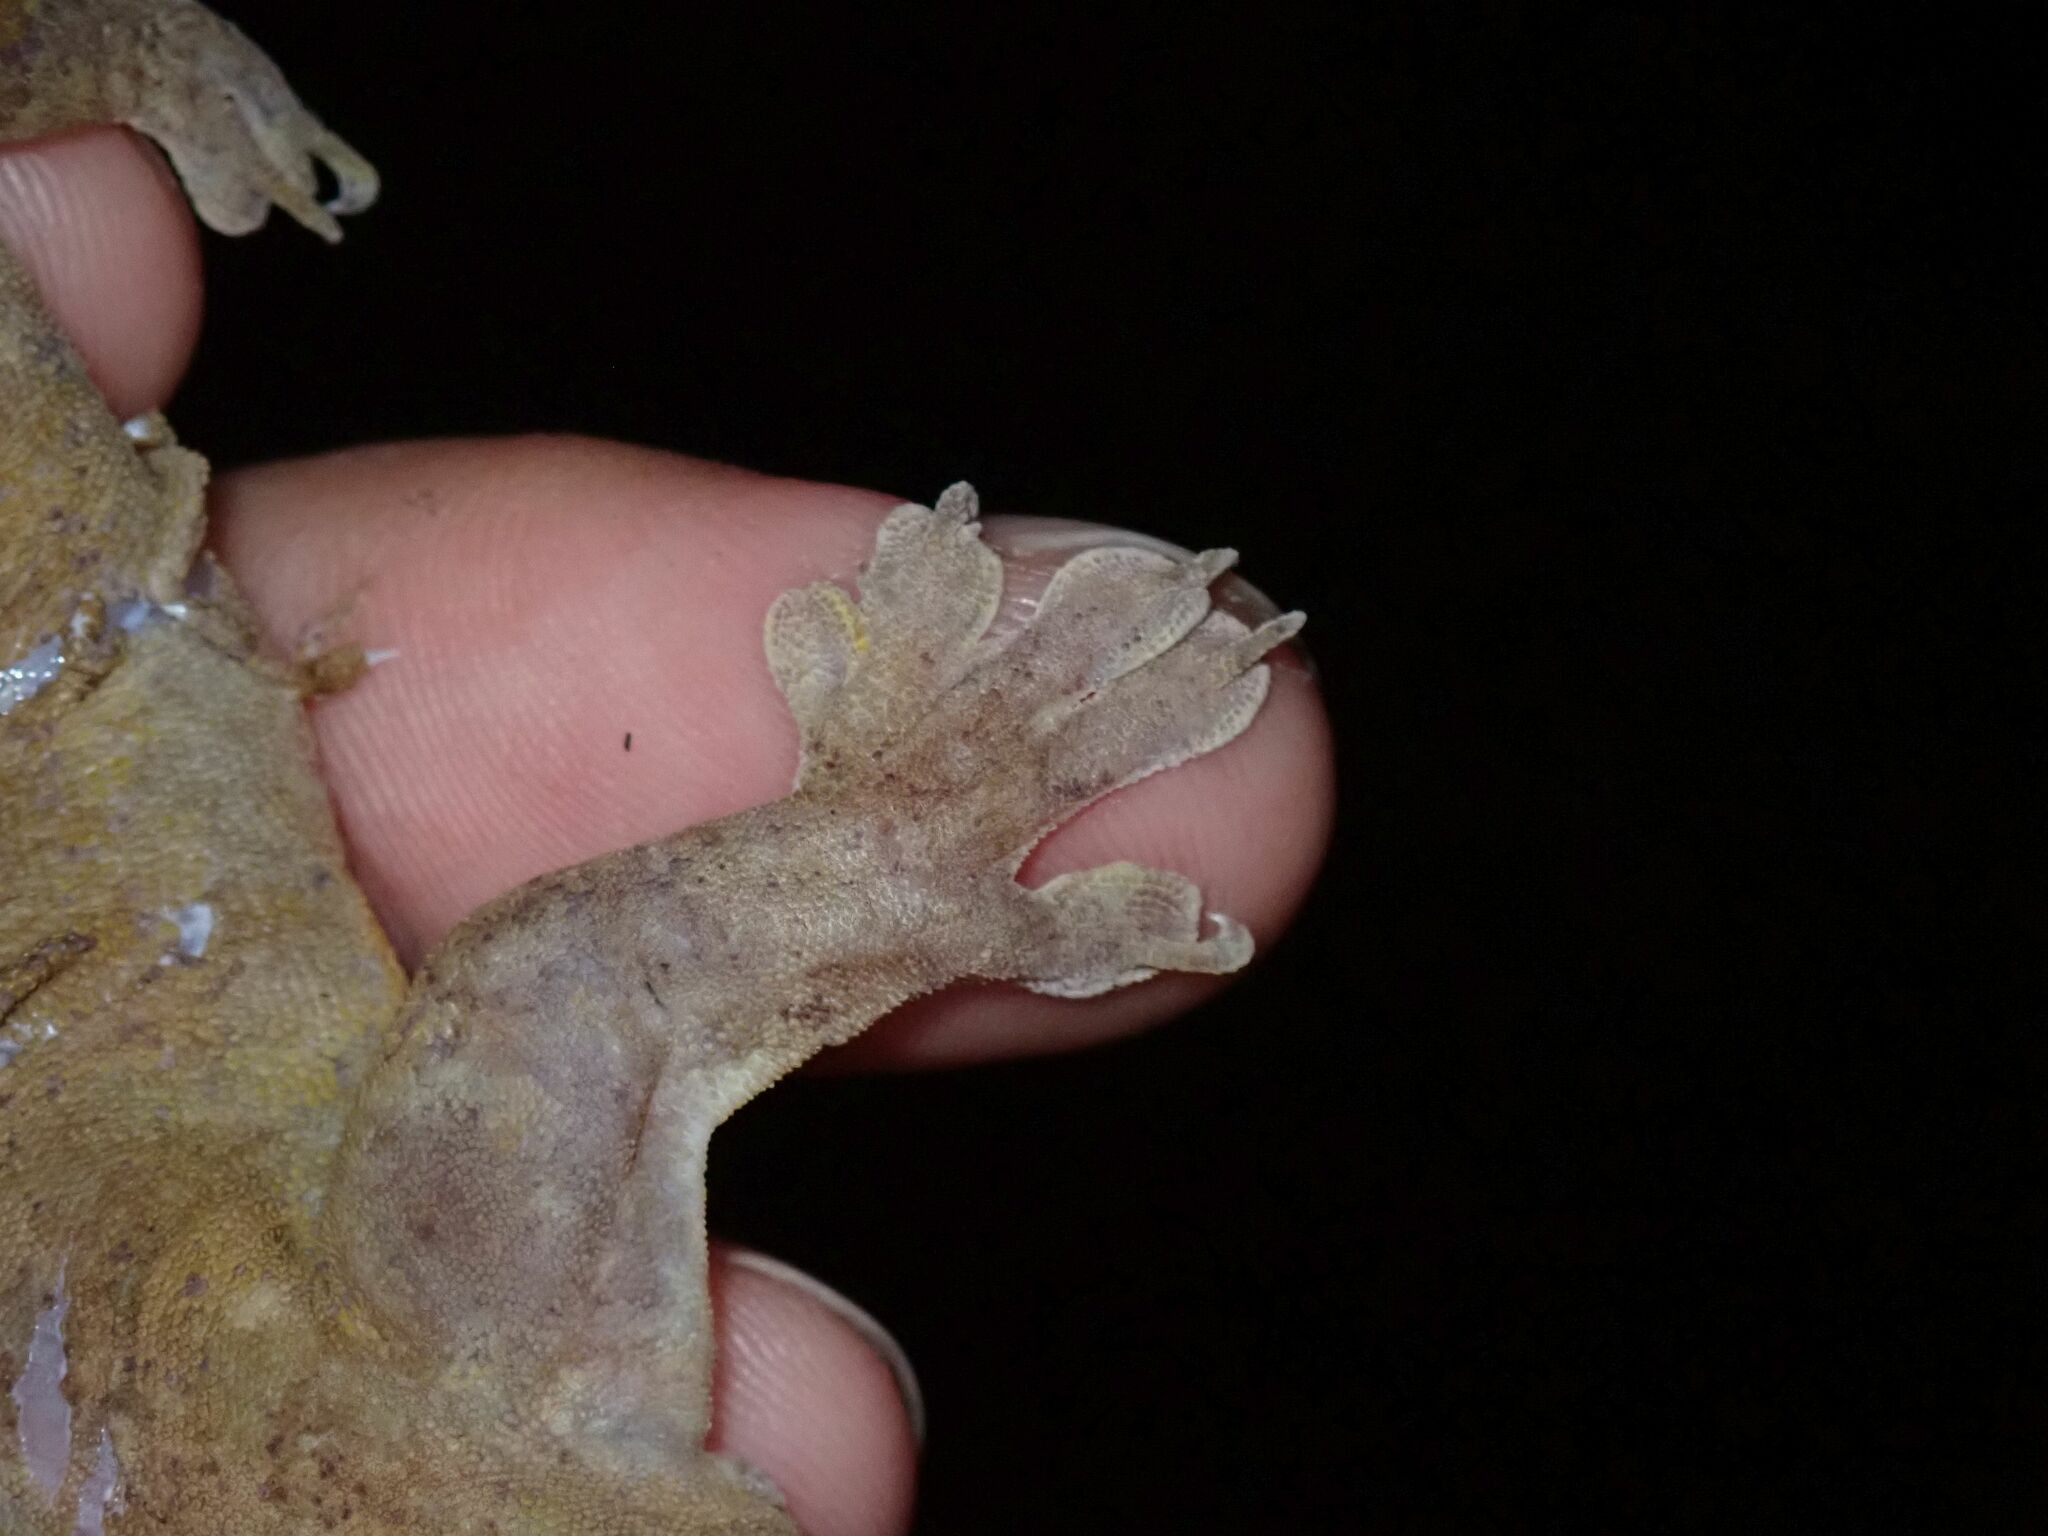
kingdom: Animalia
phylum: Chordata
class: Squamata
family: Gekkonidae
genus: Gehyra
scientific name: Gehyra oceanica
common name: Pacific dtella
